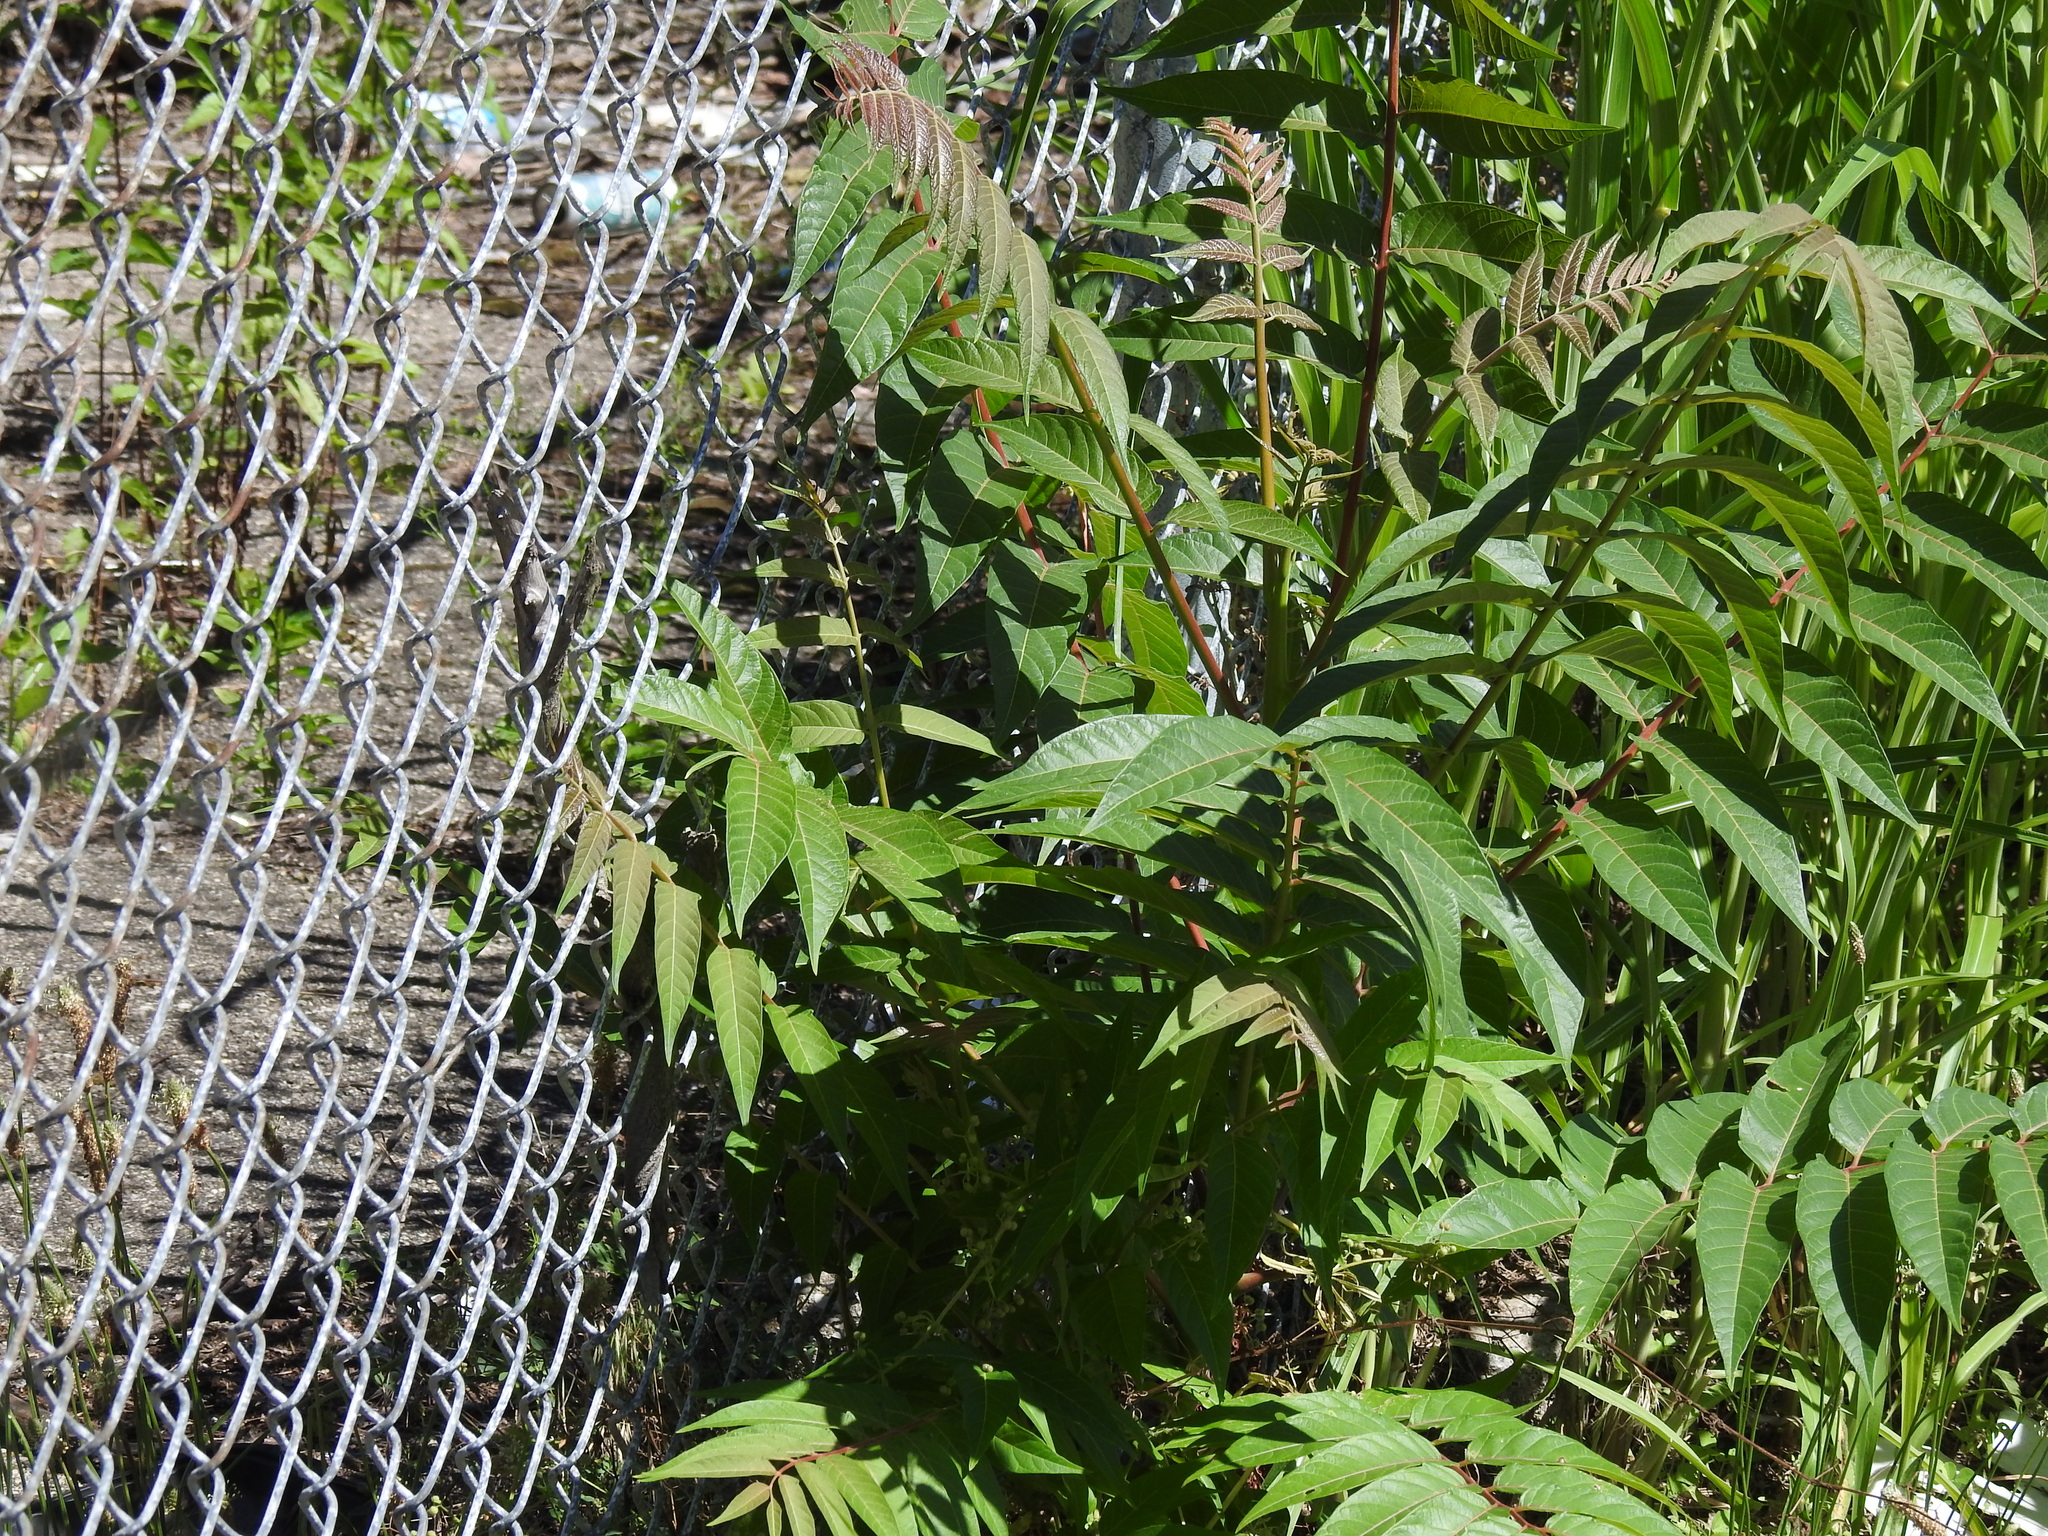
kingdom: Plantae
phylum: Tracheophyta
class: Magnoliopsida
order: Sapindales
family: Simaroubaceae
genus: Ailanthus
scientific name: Ailanthus altissima
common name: Tree-of-heaven
